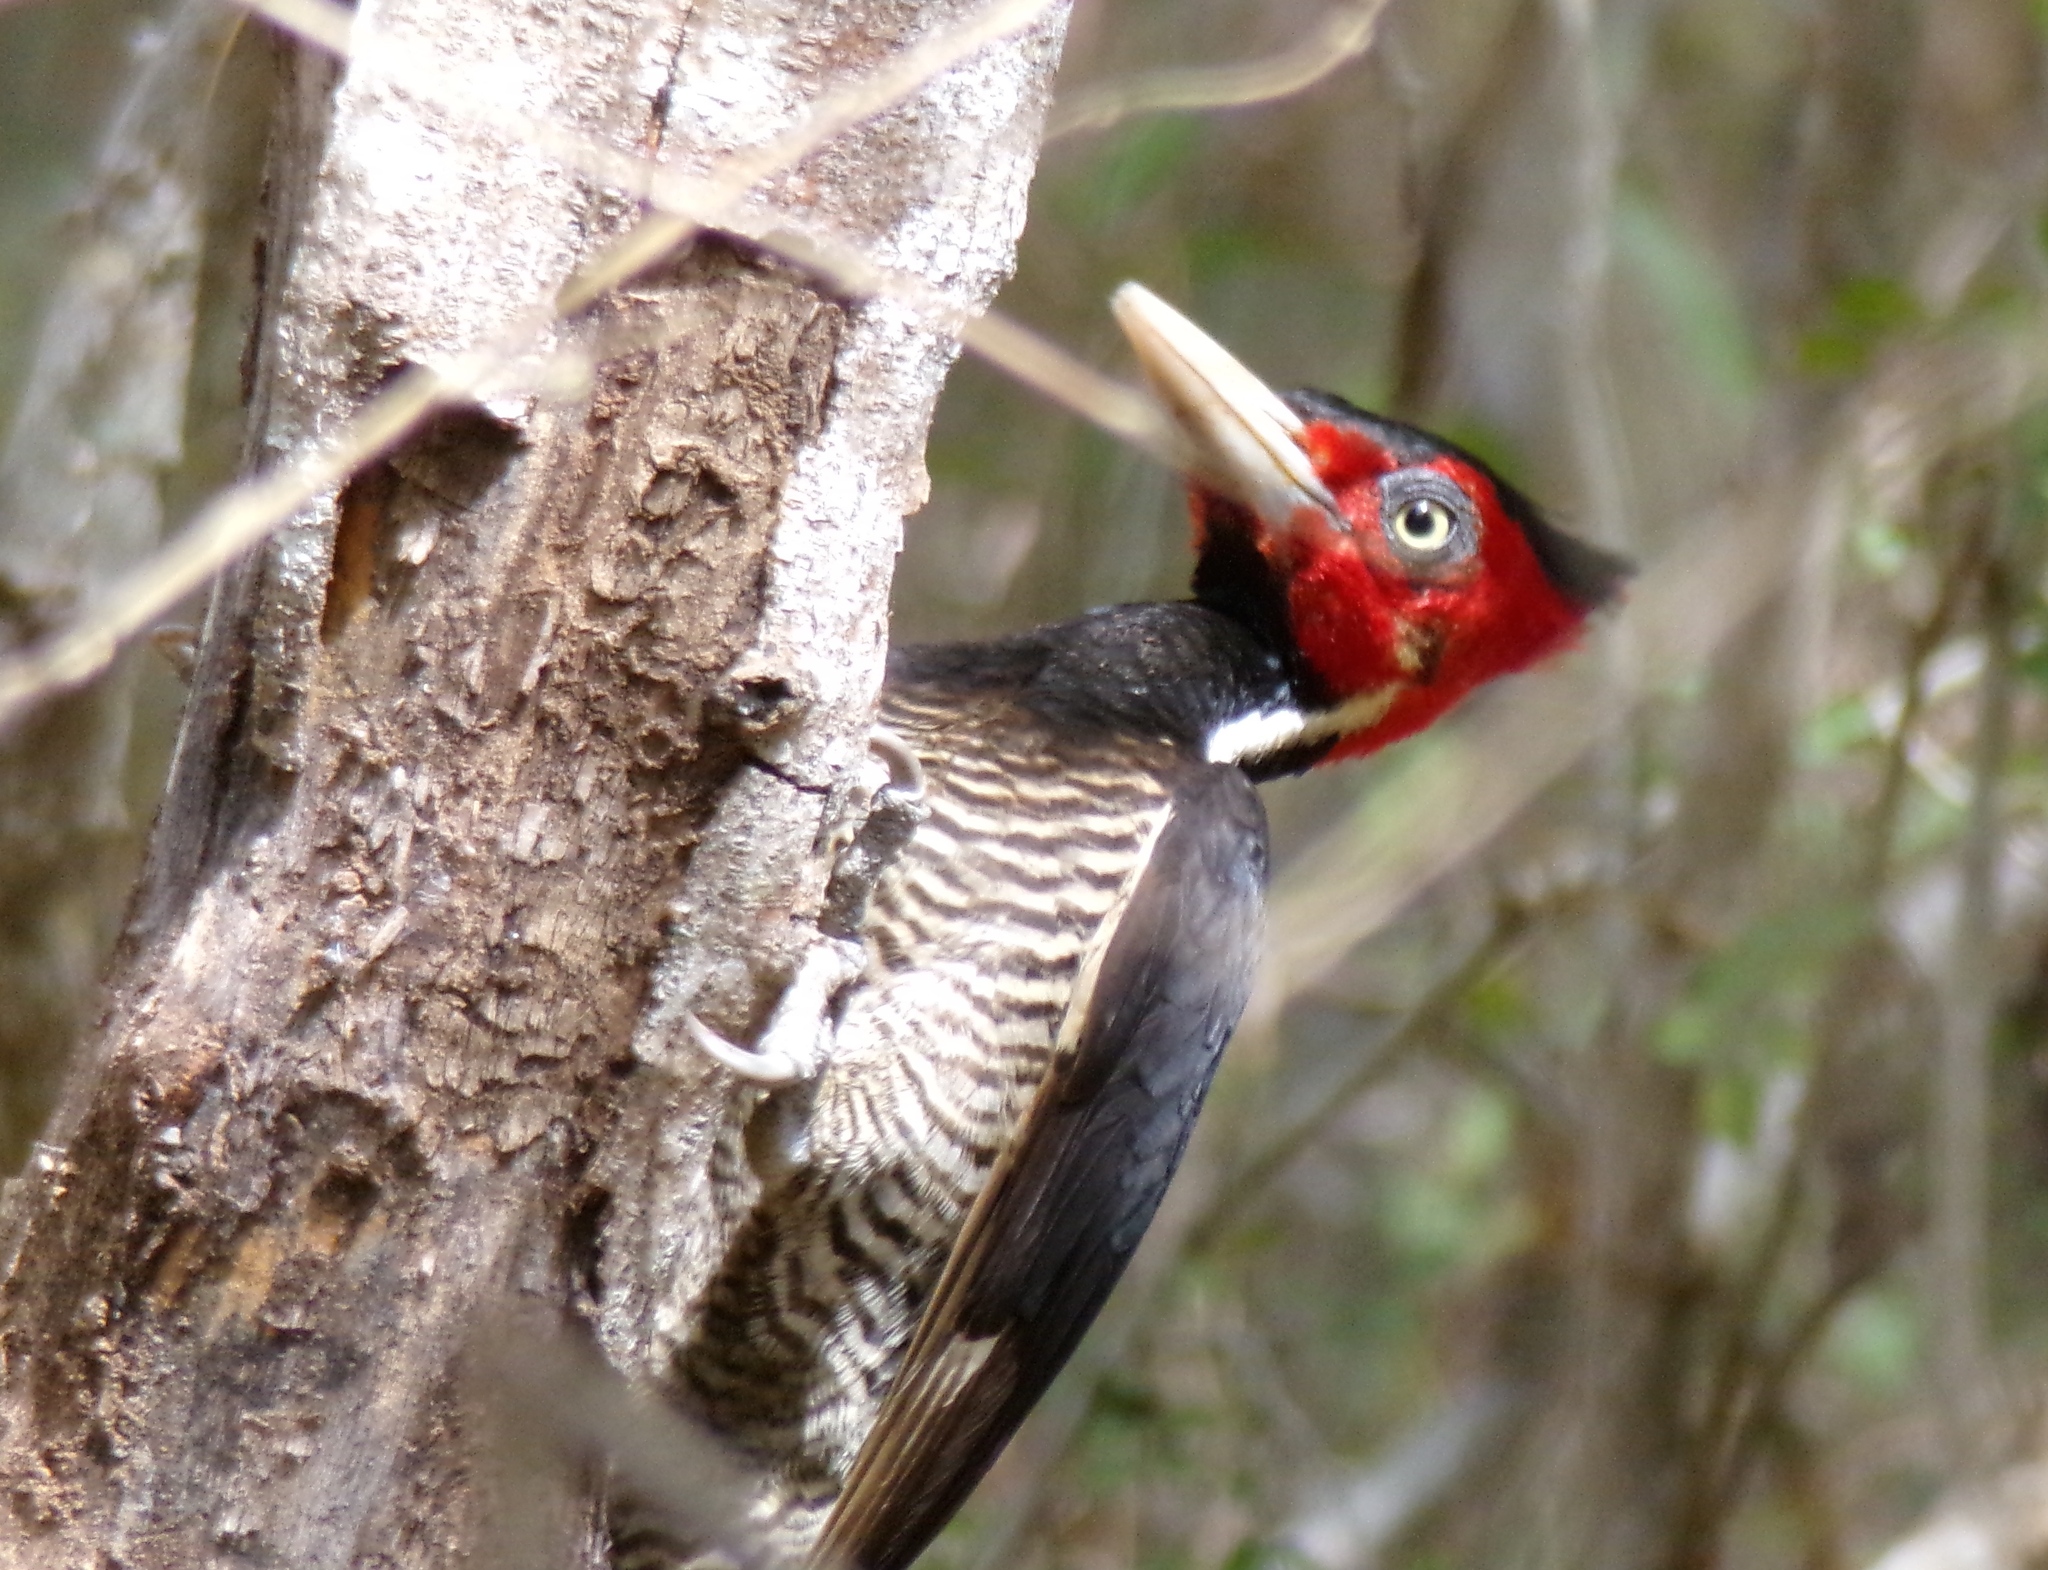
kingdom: Animalia
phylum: Chordata
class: Aves
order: Piciformes
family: Picidae
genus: Campephilus
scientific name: Campephilus guatemalensis
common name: Pale-billed woodpecker
